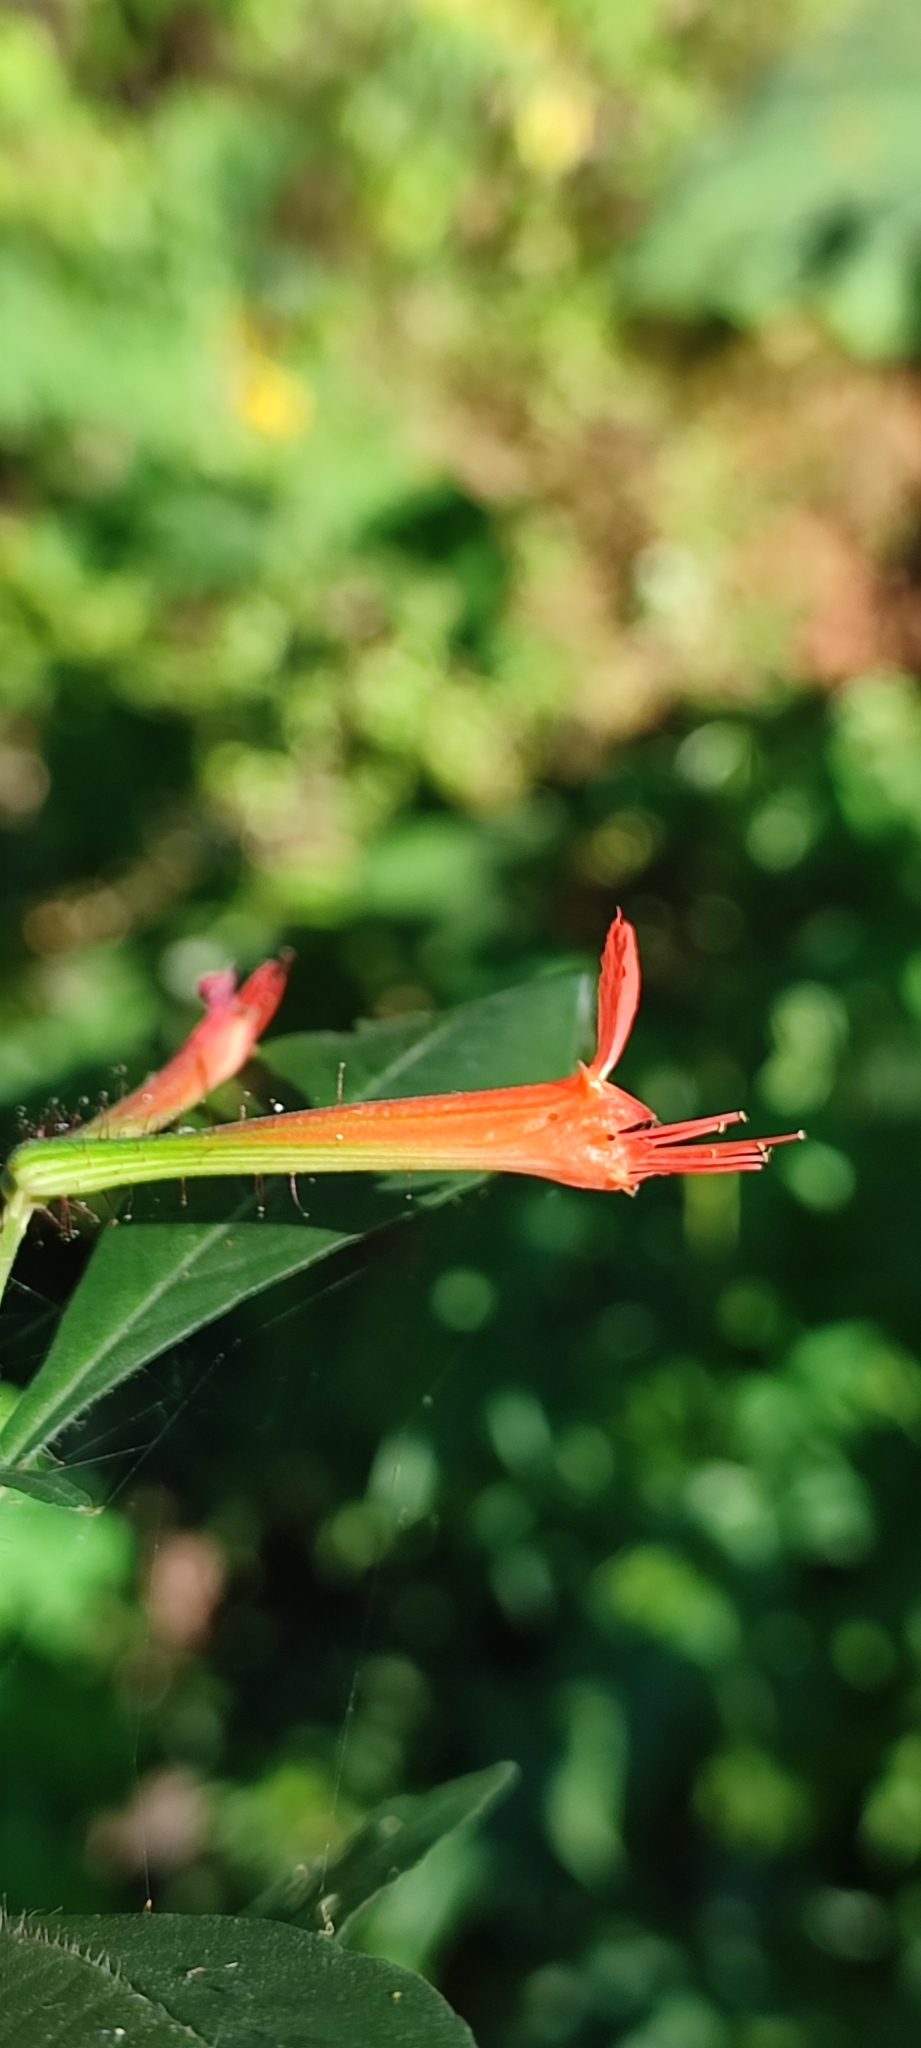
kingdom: Plantae
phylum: Tracheophyta
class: Magnoliopsida
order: Myrtales
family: Lythraceae
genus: Cuphea
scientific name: Cuphea appendiculata
